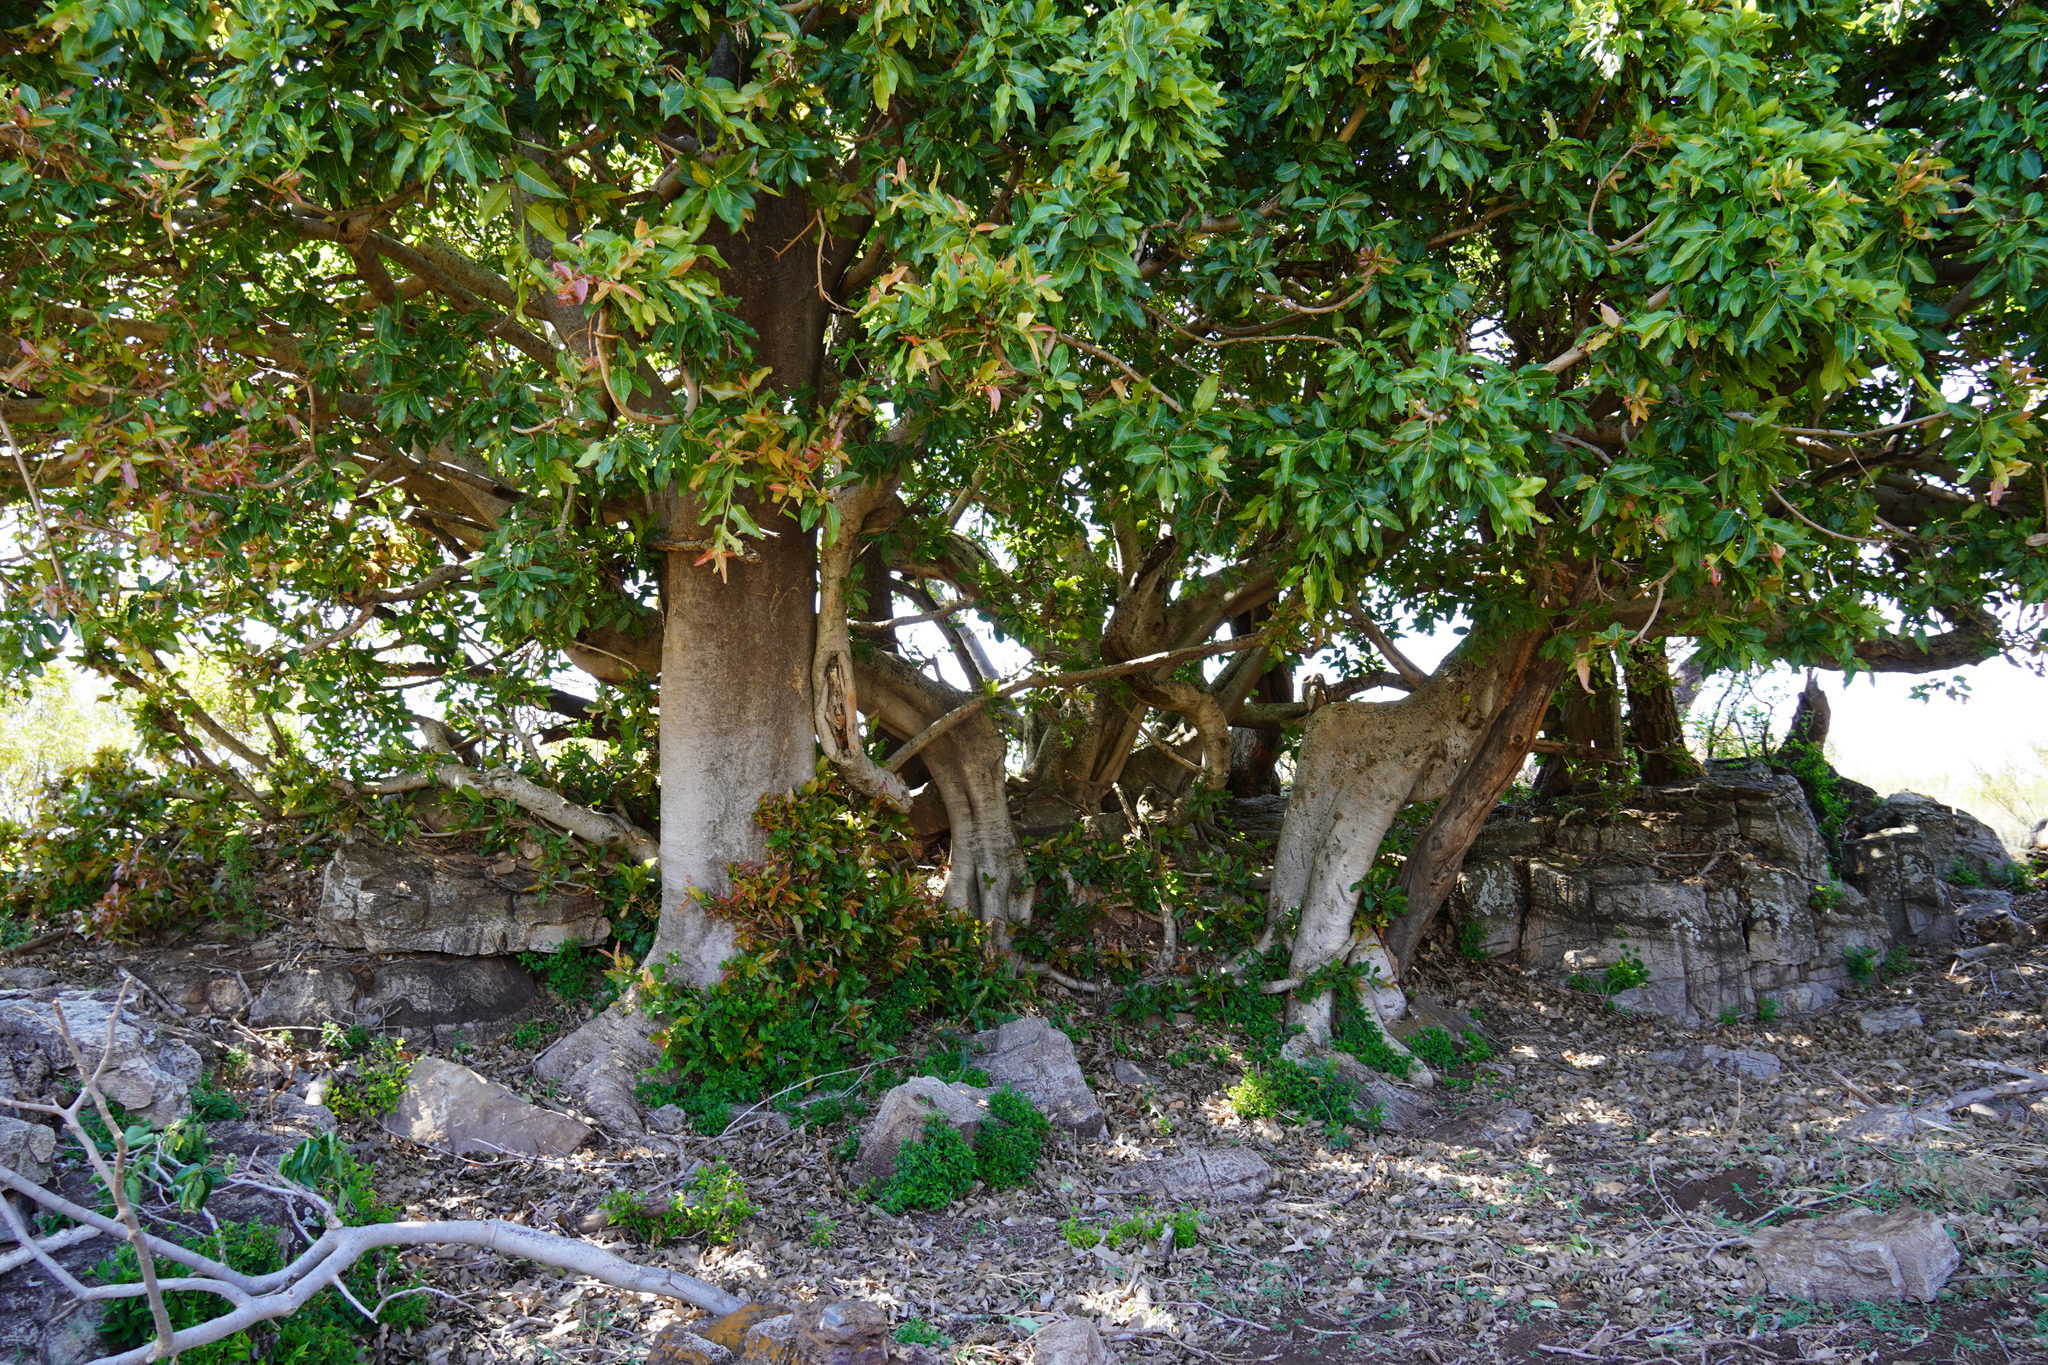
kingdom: Plantae
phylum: Tracheophyta
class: Magnoliopsida
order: Rosales
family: Moraceae
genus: Ficus
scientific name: Ficus ingens
